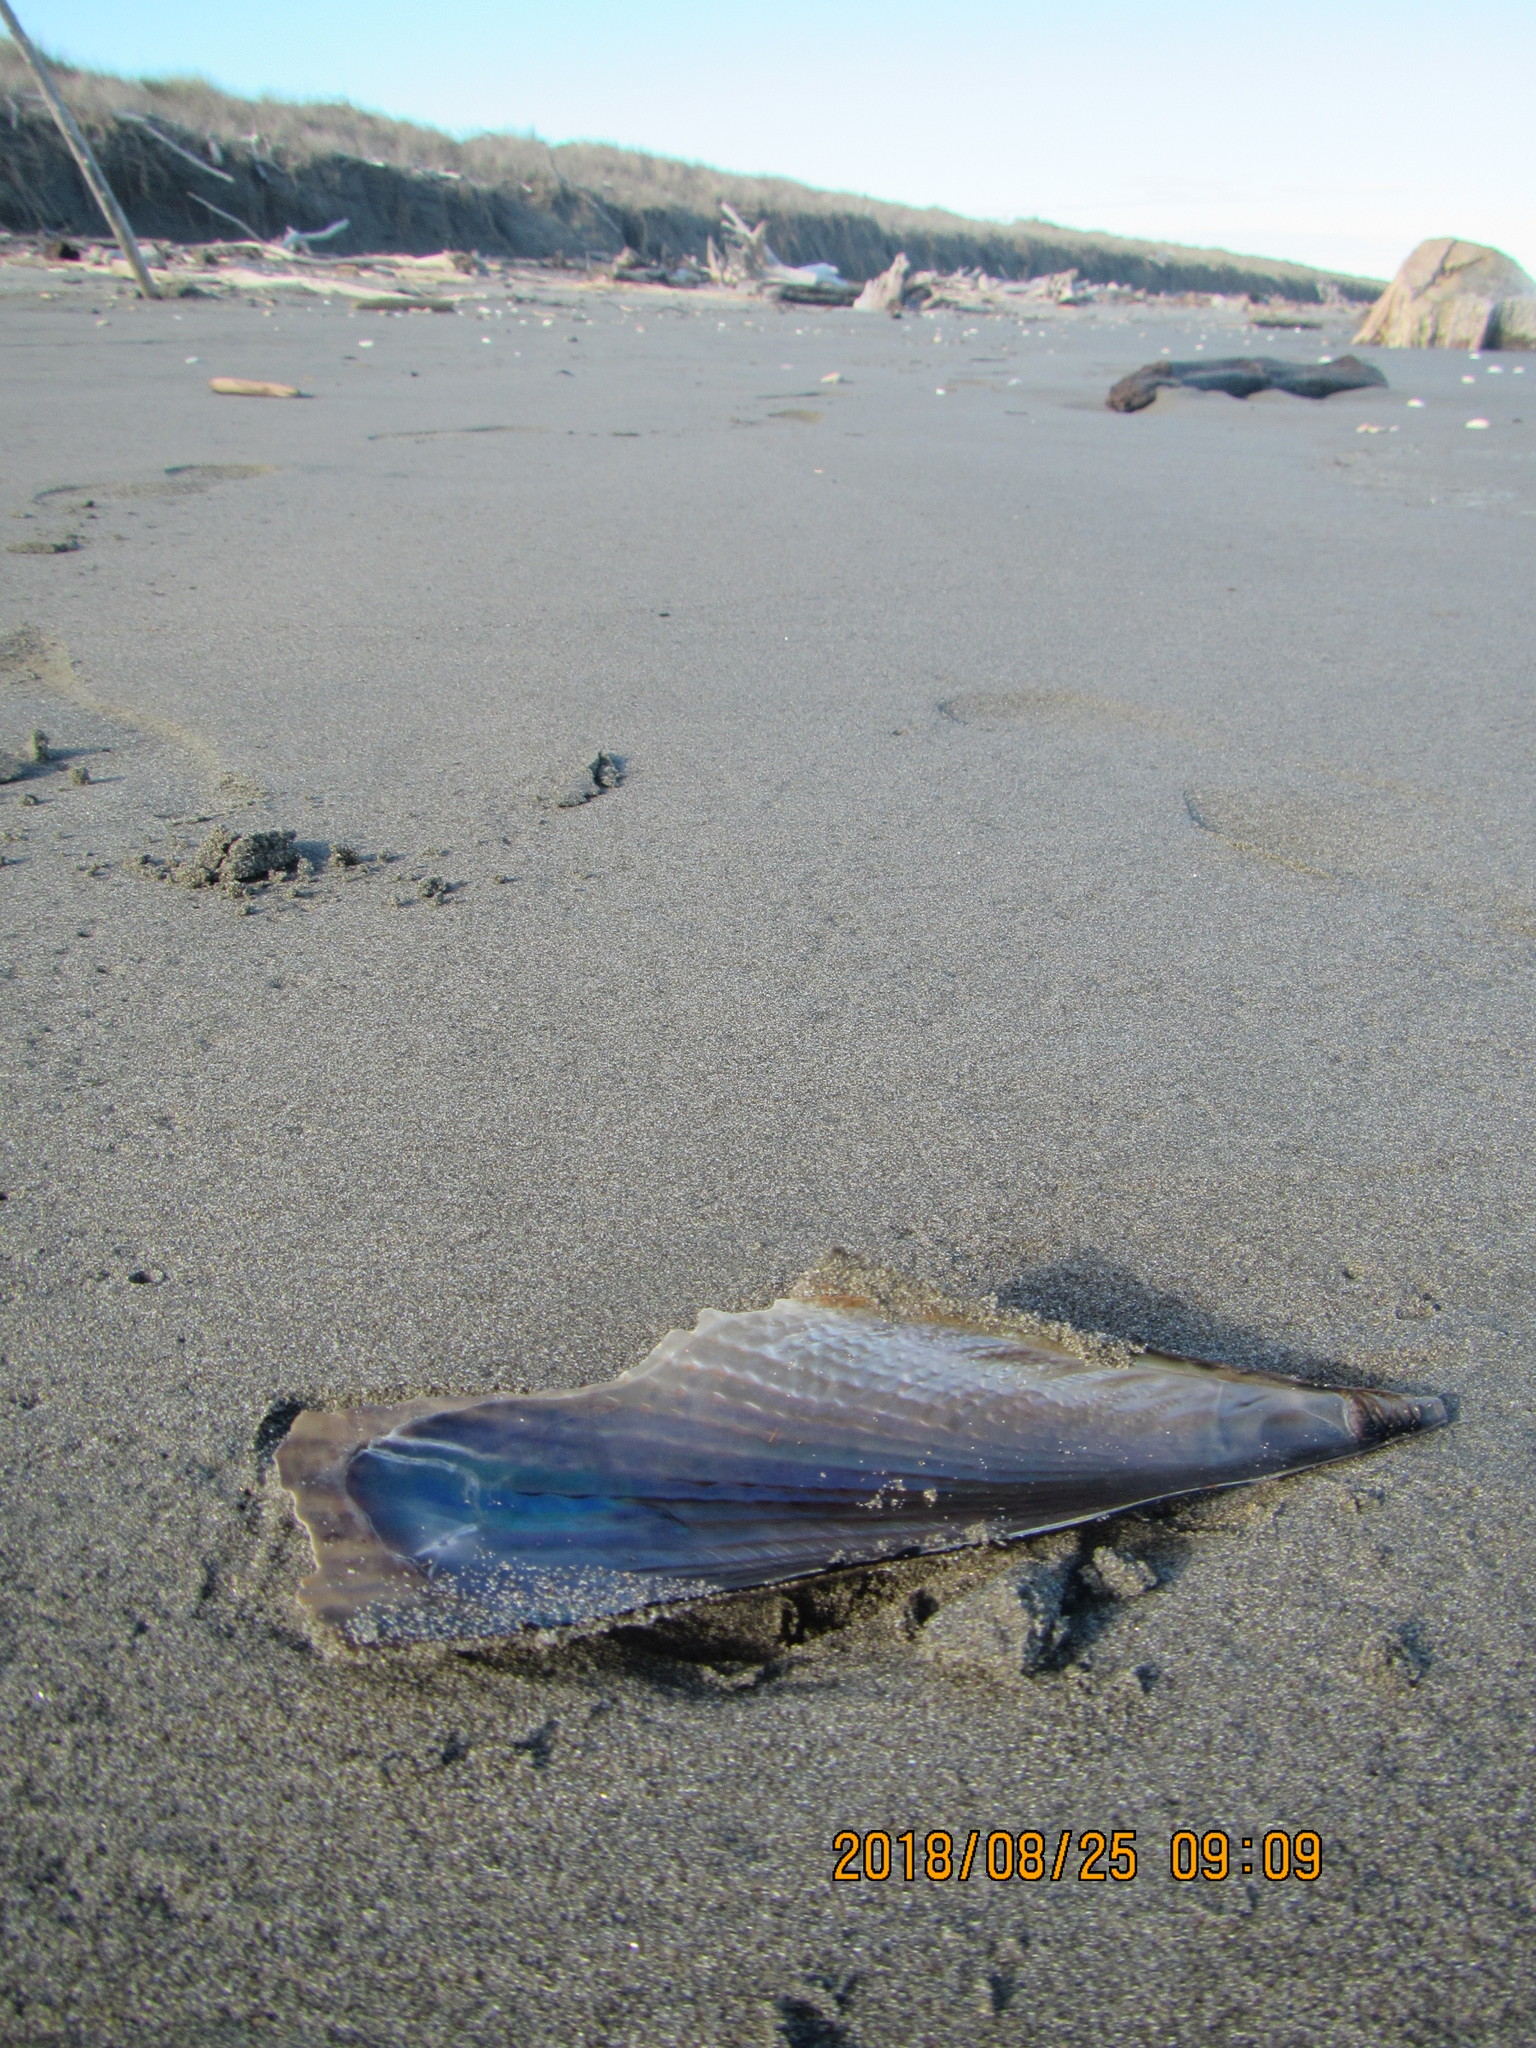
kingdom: Animalia
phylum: Mollusca
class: Bivalvia
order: Ostreida
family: Pinnidae
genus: Atrina
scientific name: Atrina zelandica
